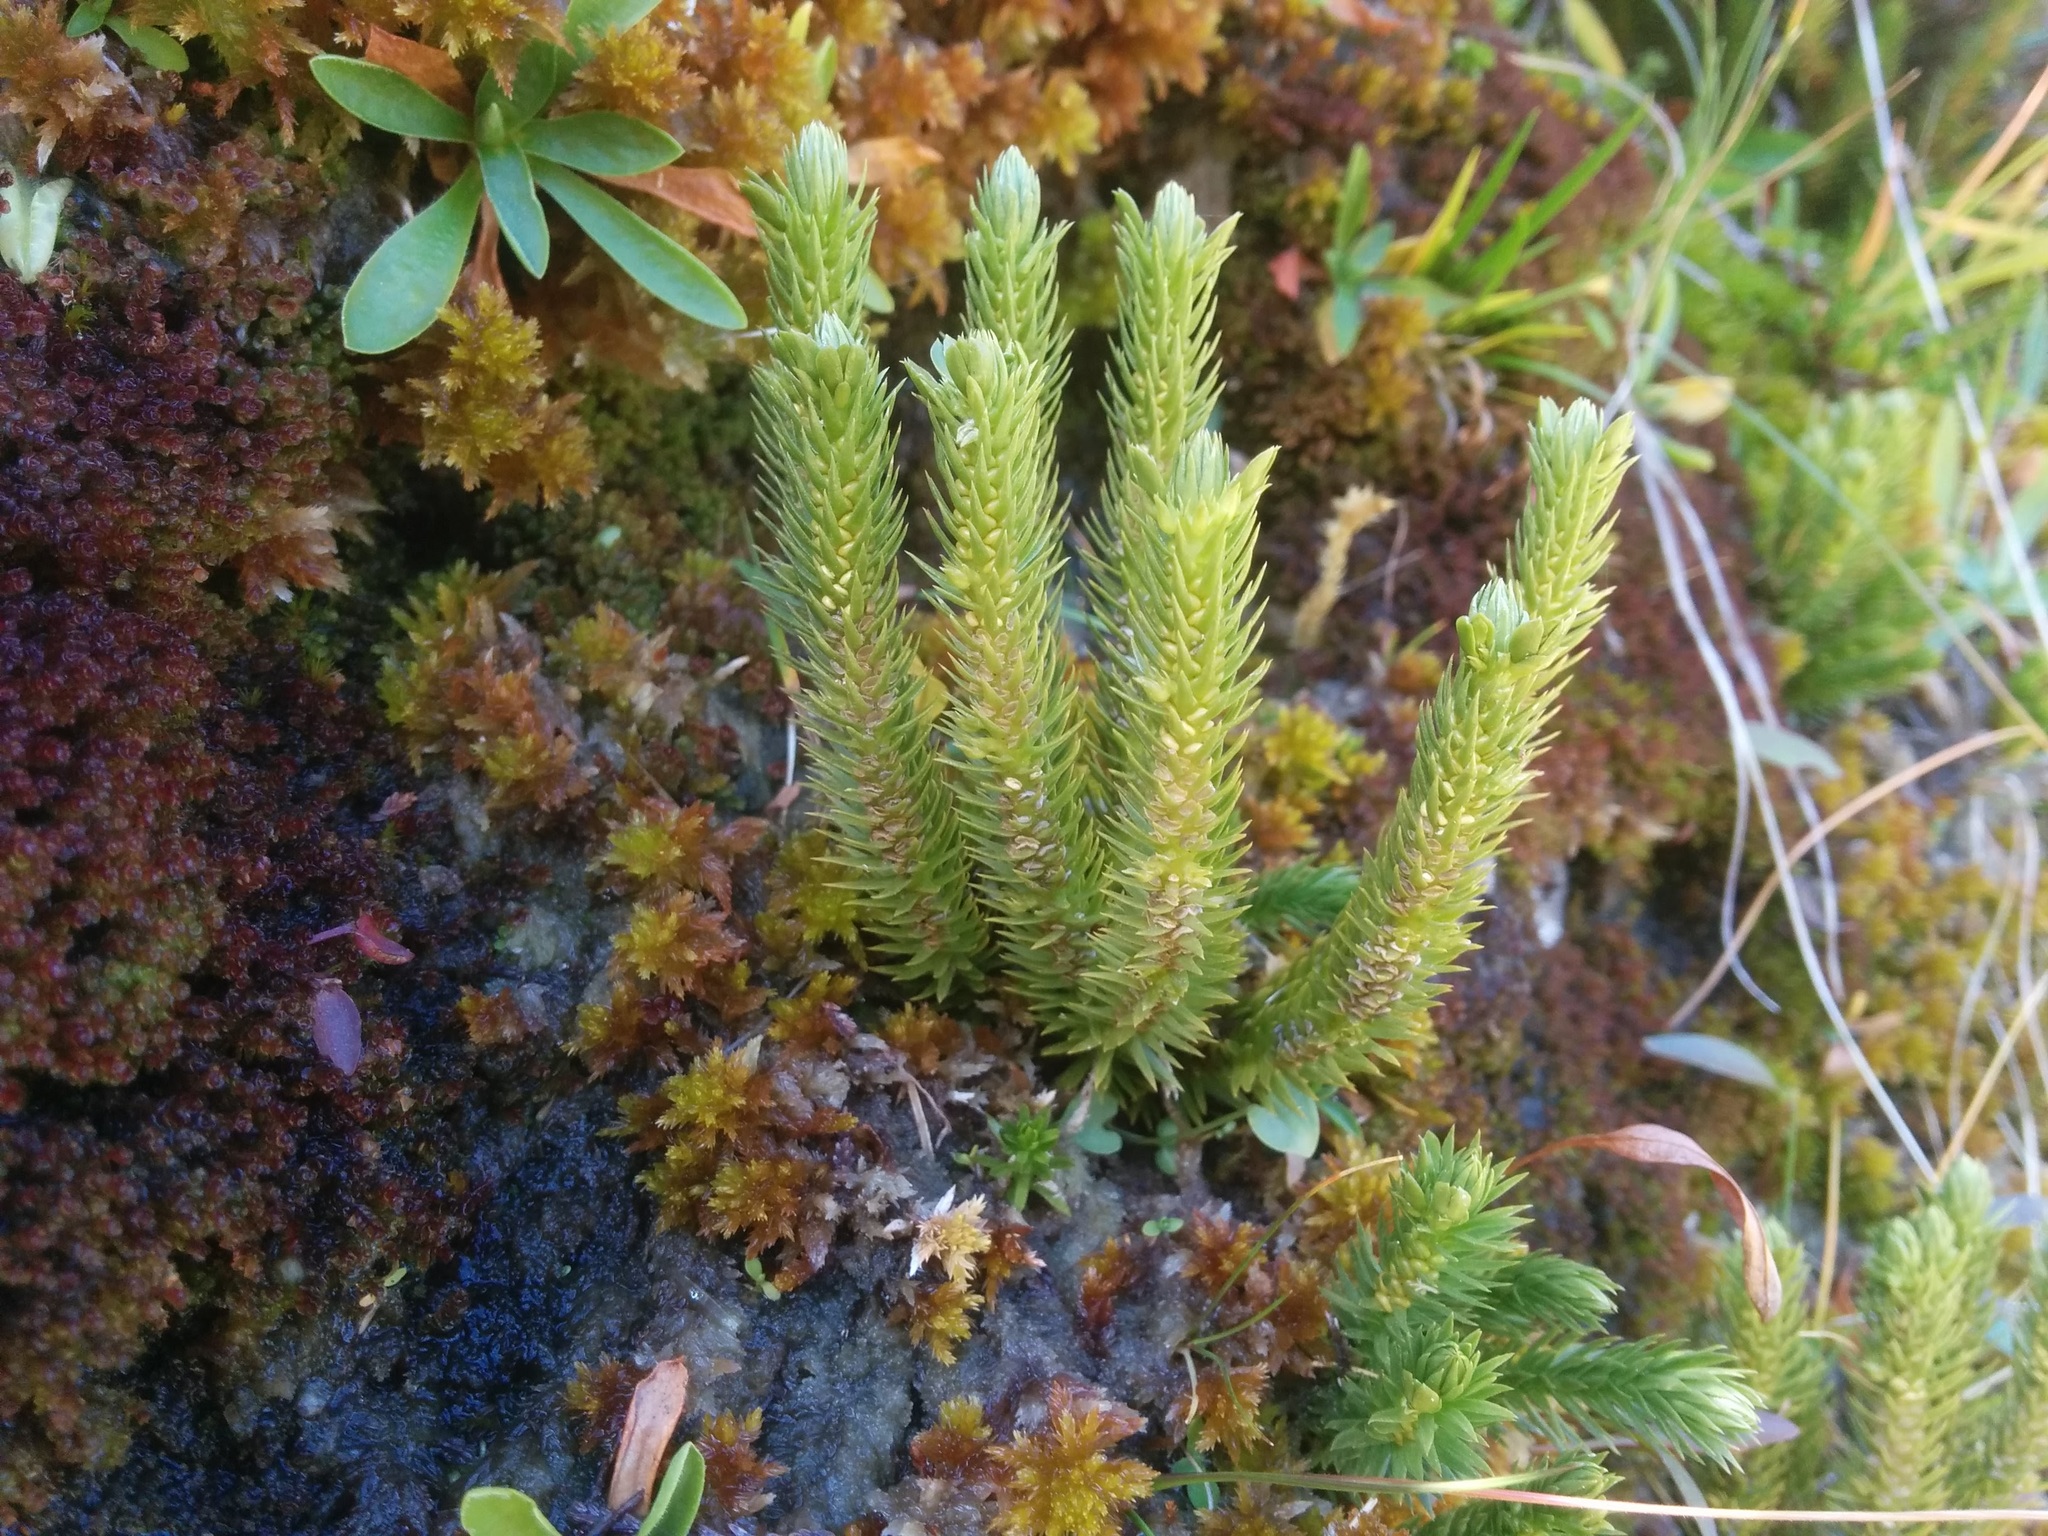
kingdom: Plantae
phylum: Tracheophyta
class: Lycopodiopsida
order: Lycopodiales
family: Lycopodiaceae
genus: Huperzia
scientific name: Huperzia selago
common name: Northern firmoss
